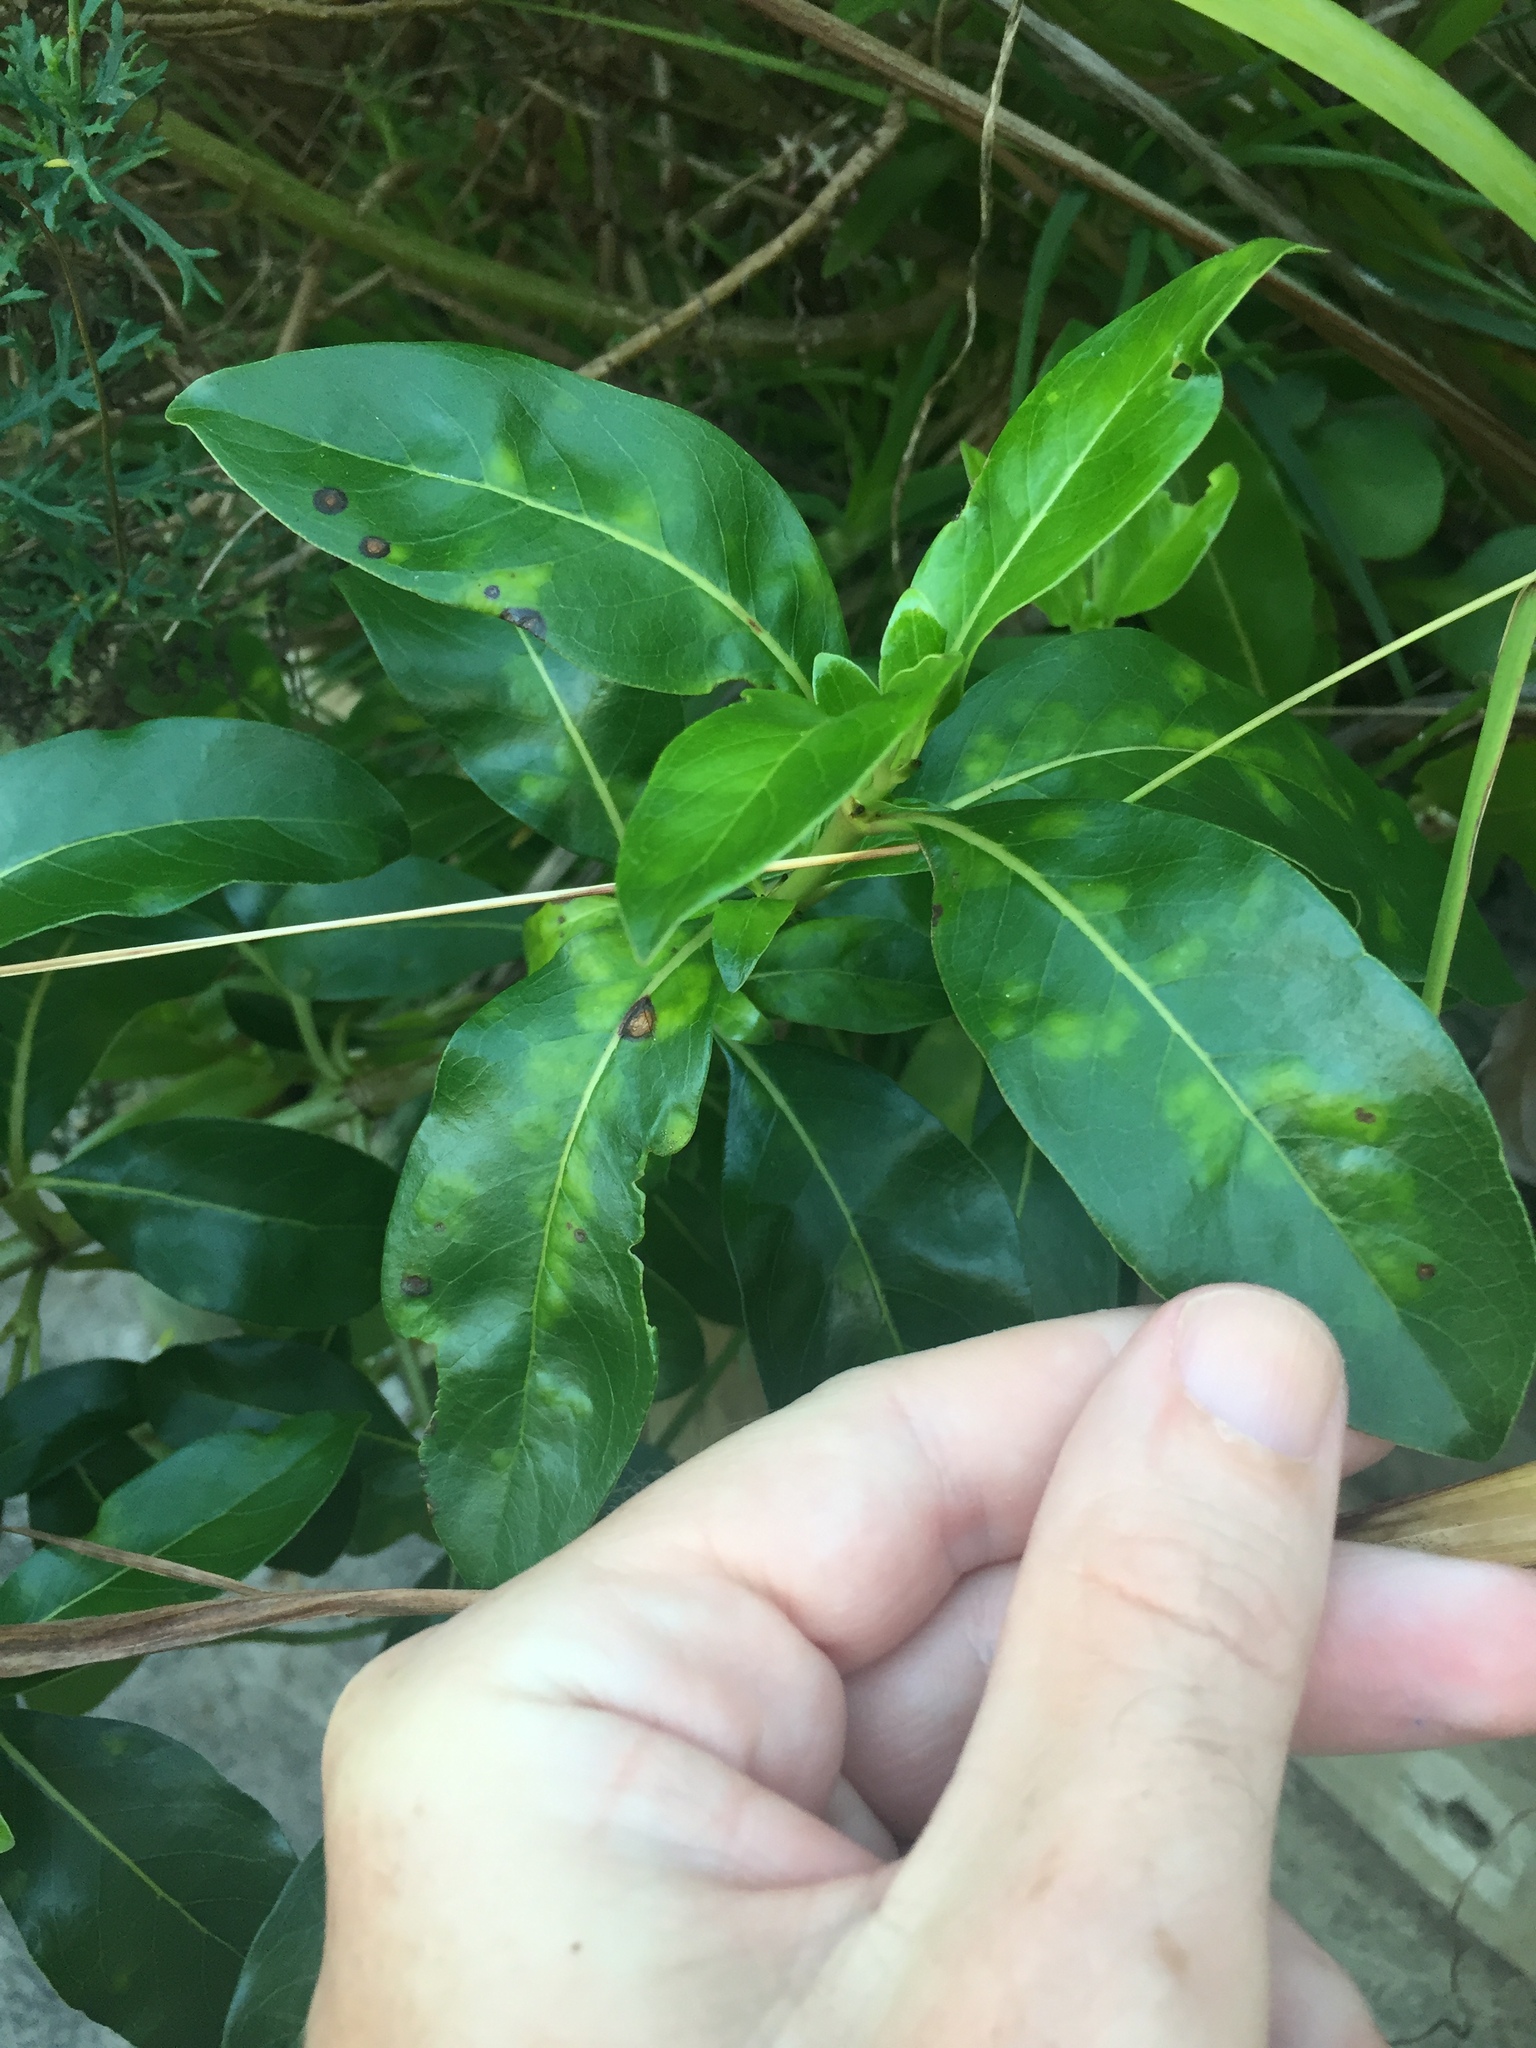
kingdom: Animalia
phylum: Arthropoda
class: Arachnida
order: Trombidiformes
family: Eriophyidae
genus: Phyllocoptes
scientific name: Phyllocoptes coprosmae
